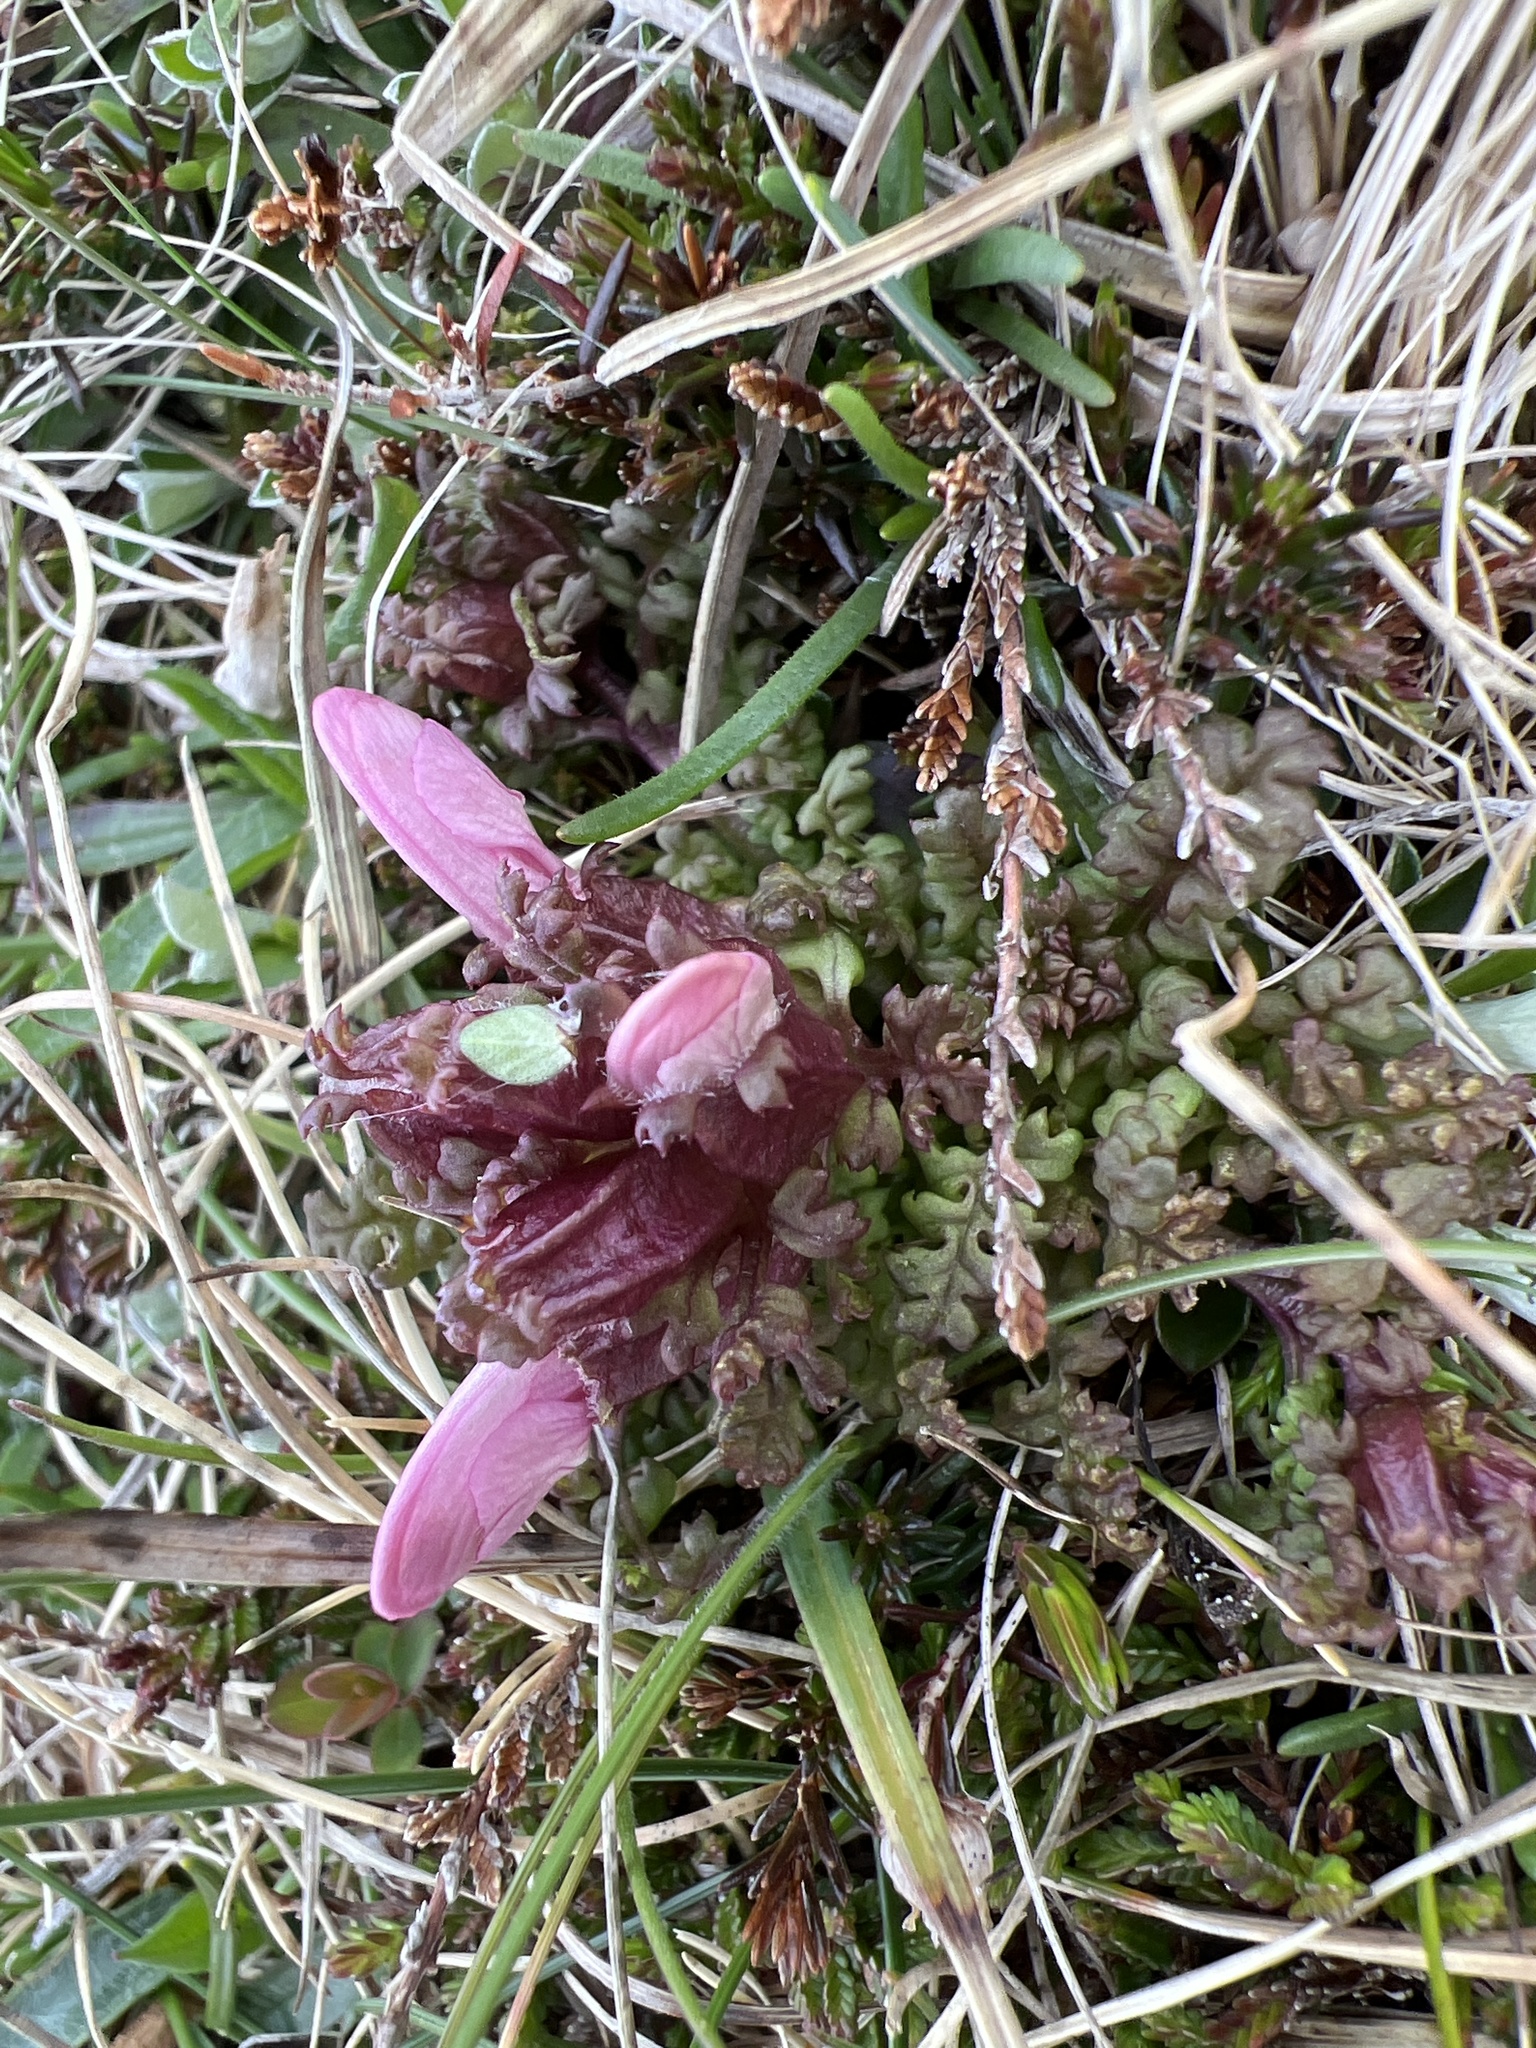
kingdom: Plantae
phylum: Tracheophyta
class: Magnoliopsida
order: Lamiales
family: Orobanchaceae
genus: Pedicularis
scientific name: Pedicularis sylvatica
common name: Lousewort
